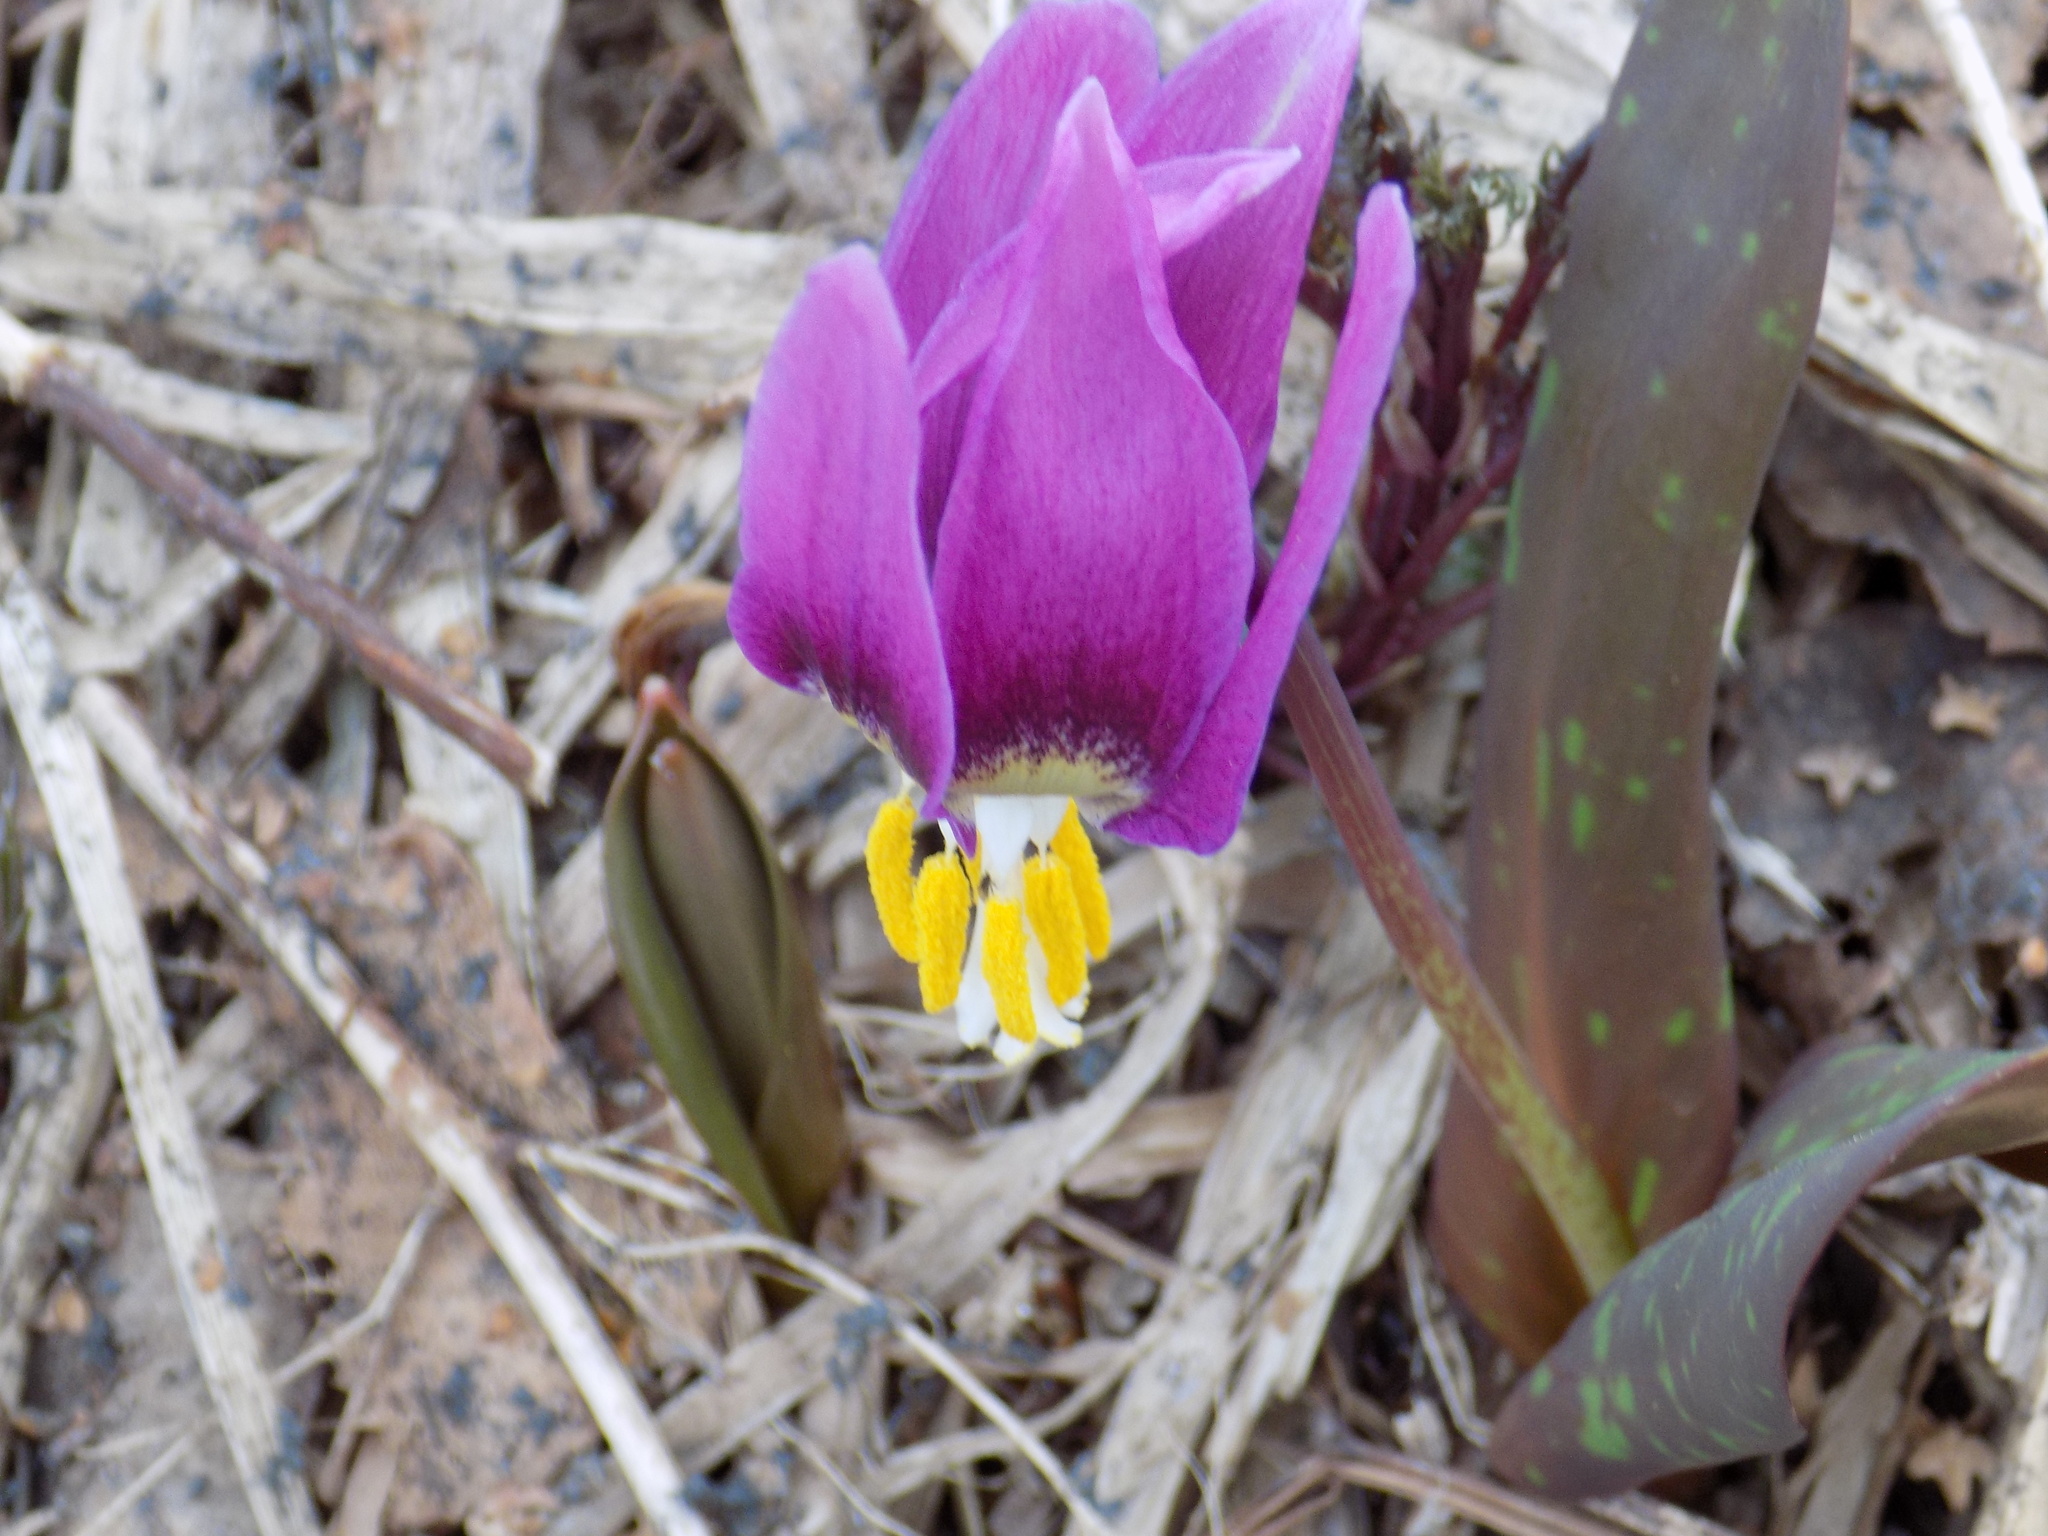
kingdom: Plantae
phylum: Tracheophyta
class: Liliopsida
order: Liliales
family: Liliaceae
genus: Erythronium
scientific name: Erythronium sibiricum
